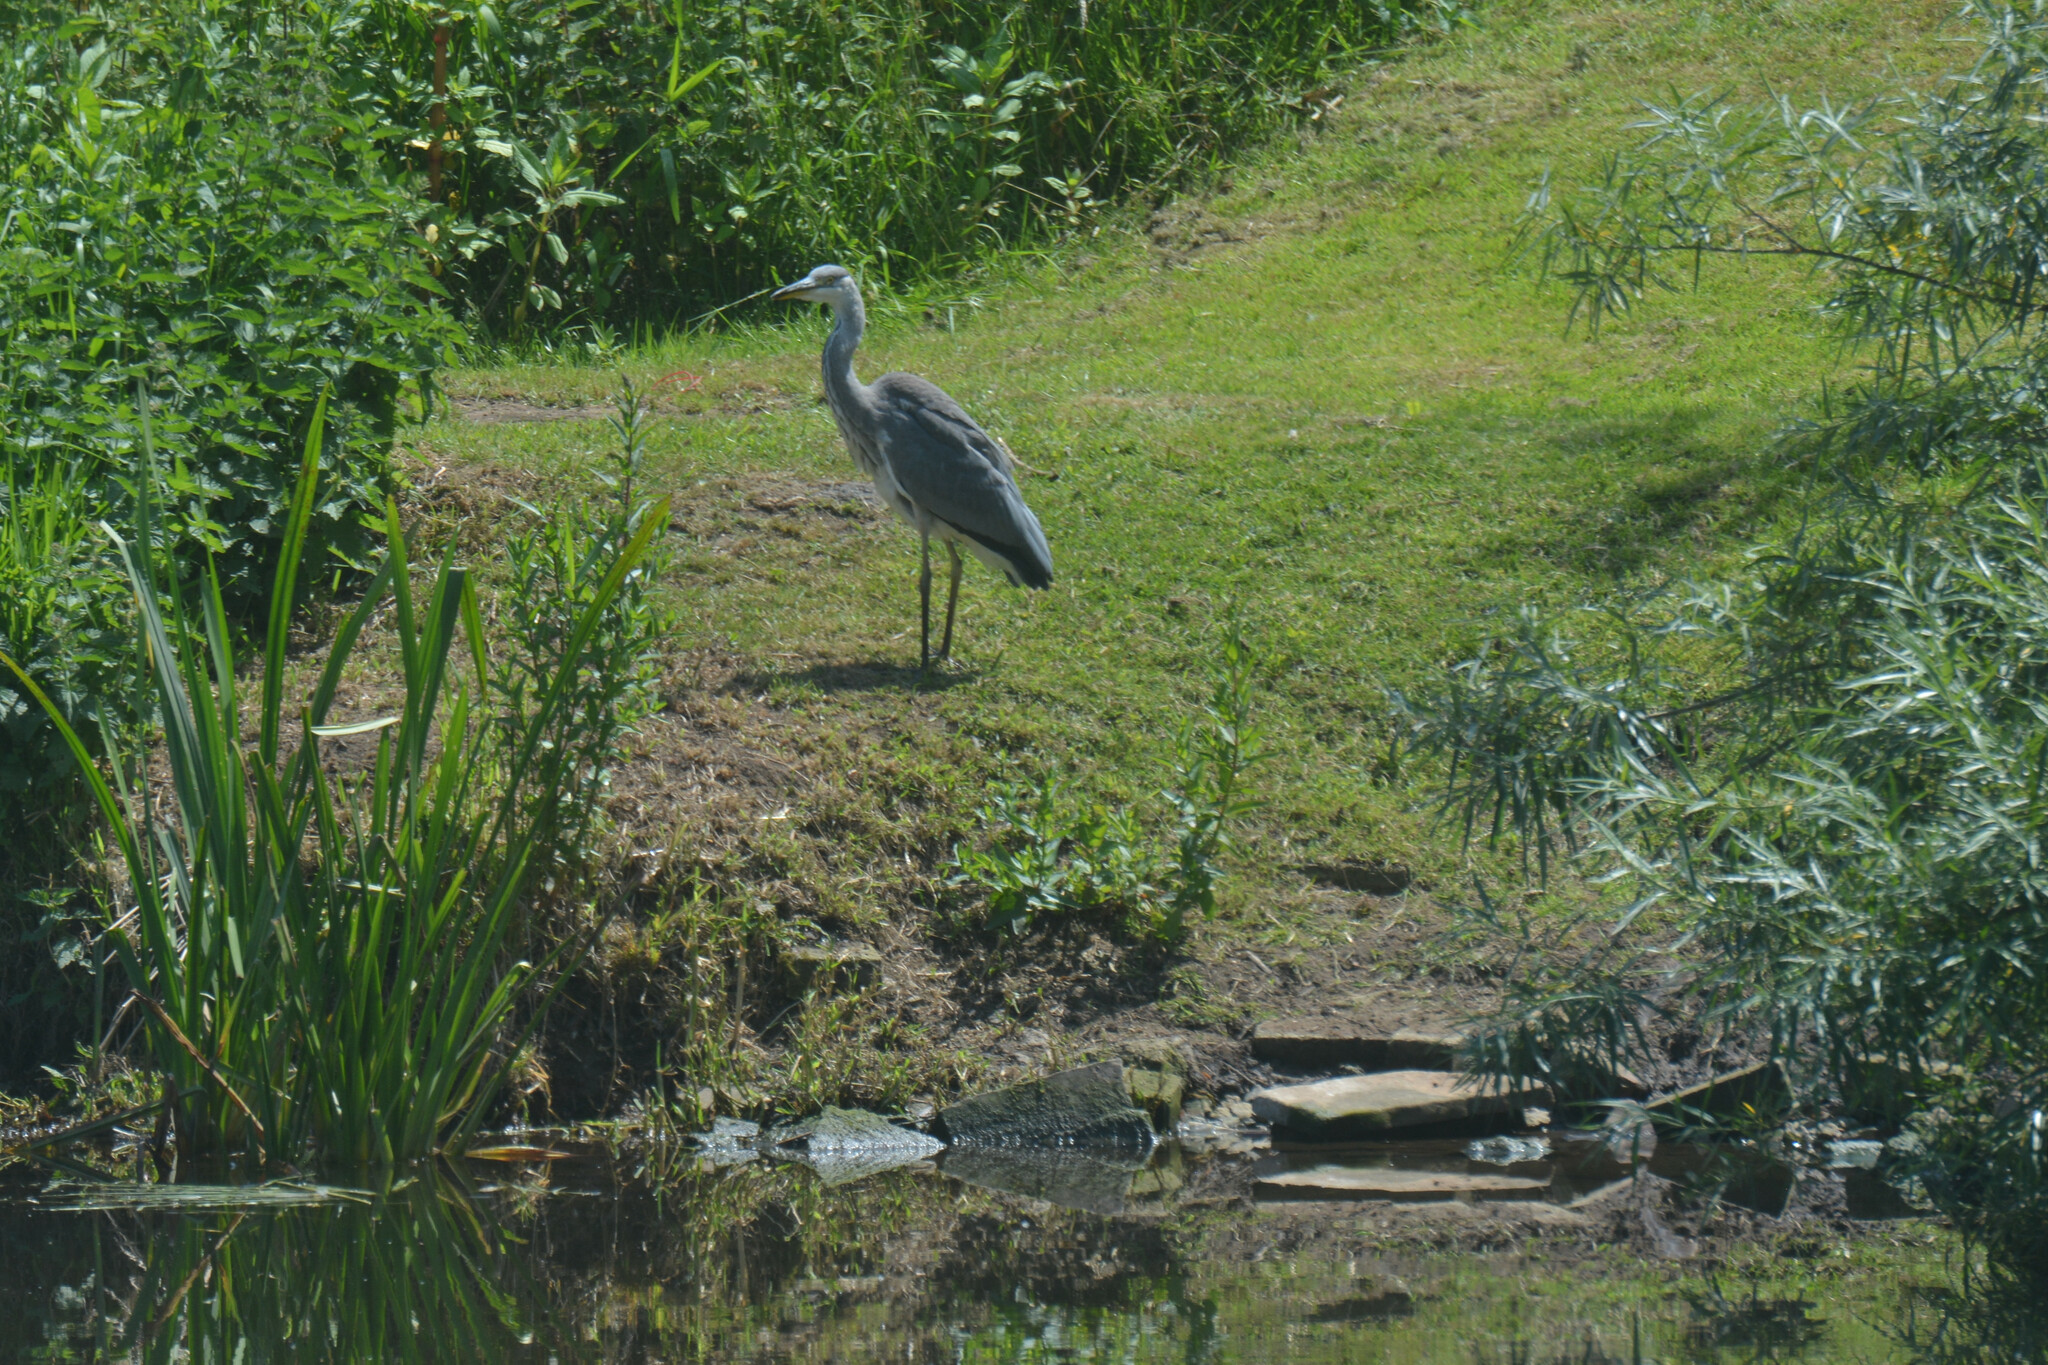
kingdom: Animalia
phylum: Chordata
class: Aves
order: Pelecaniformes
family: Ardeidae
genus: Ardea
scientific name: Ardea cinerea
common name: Grey heron
